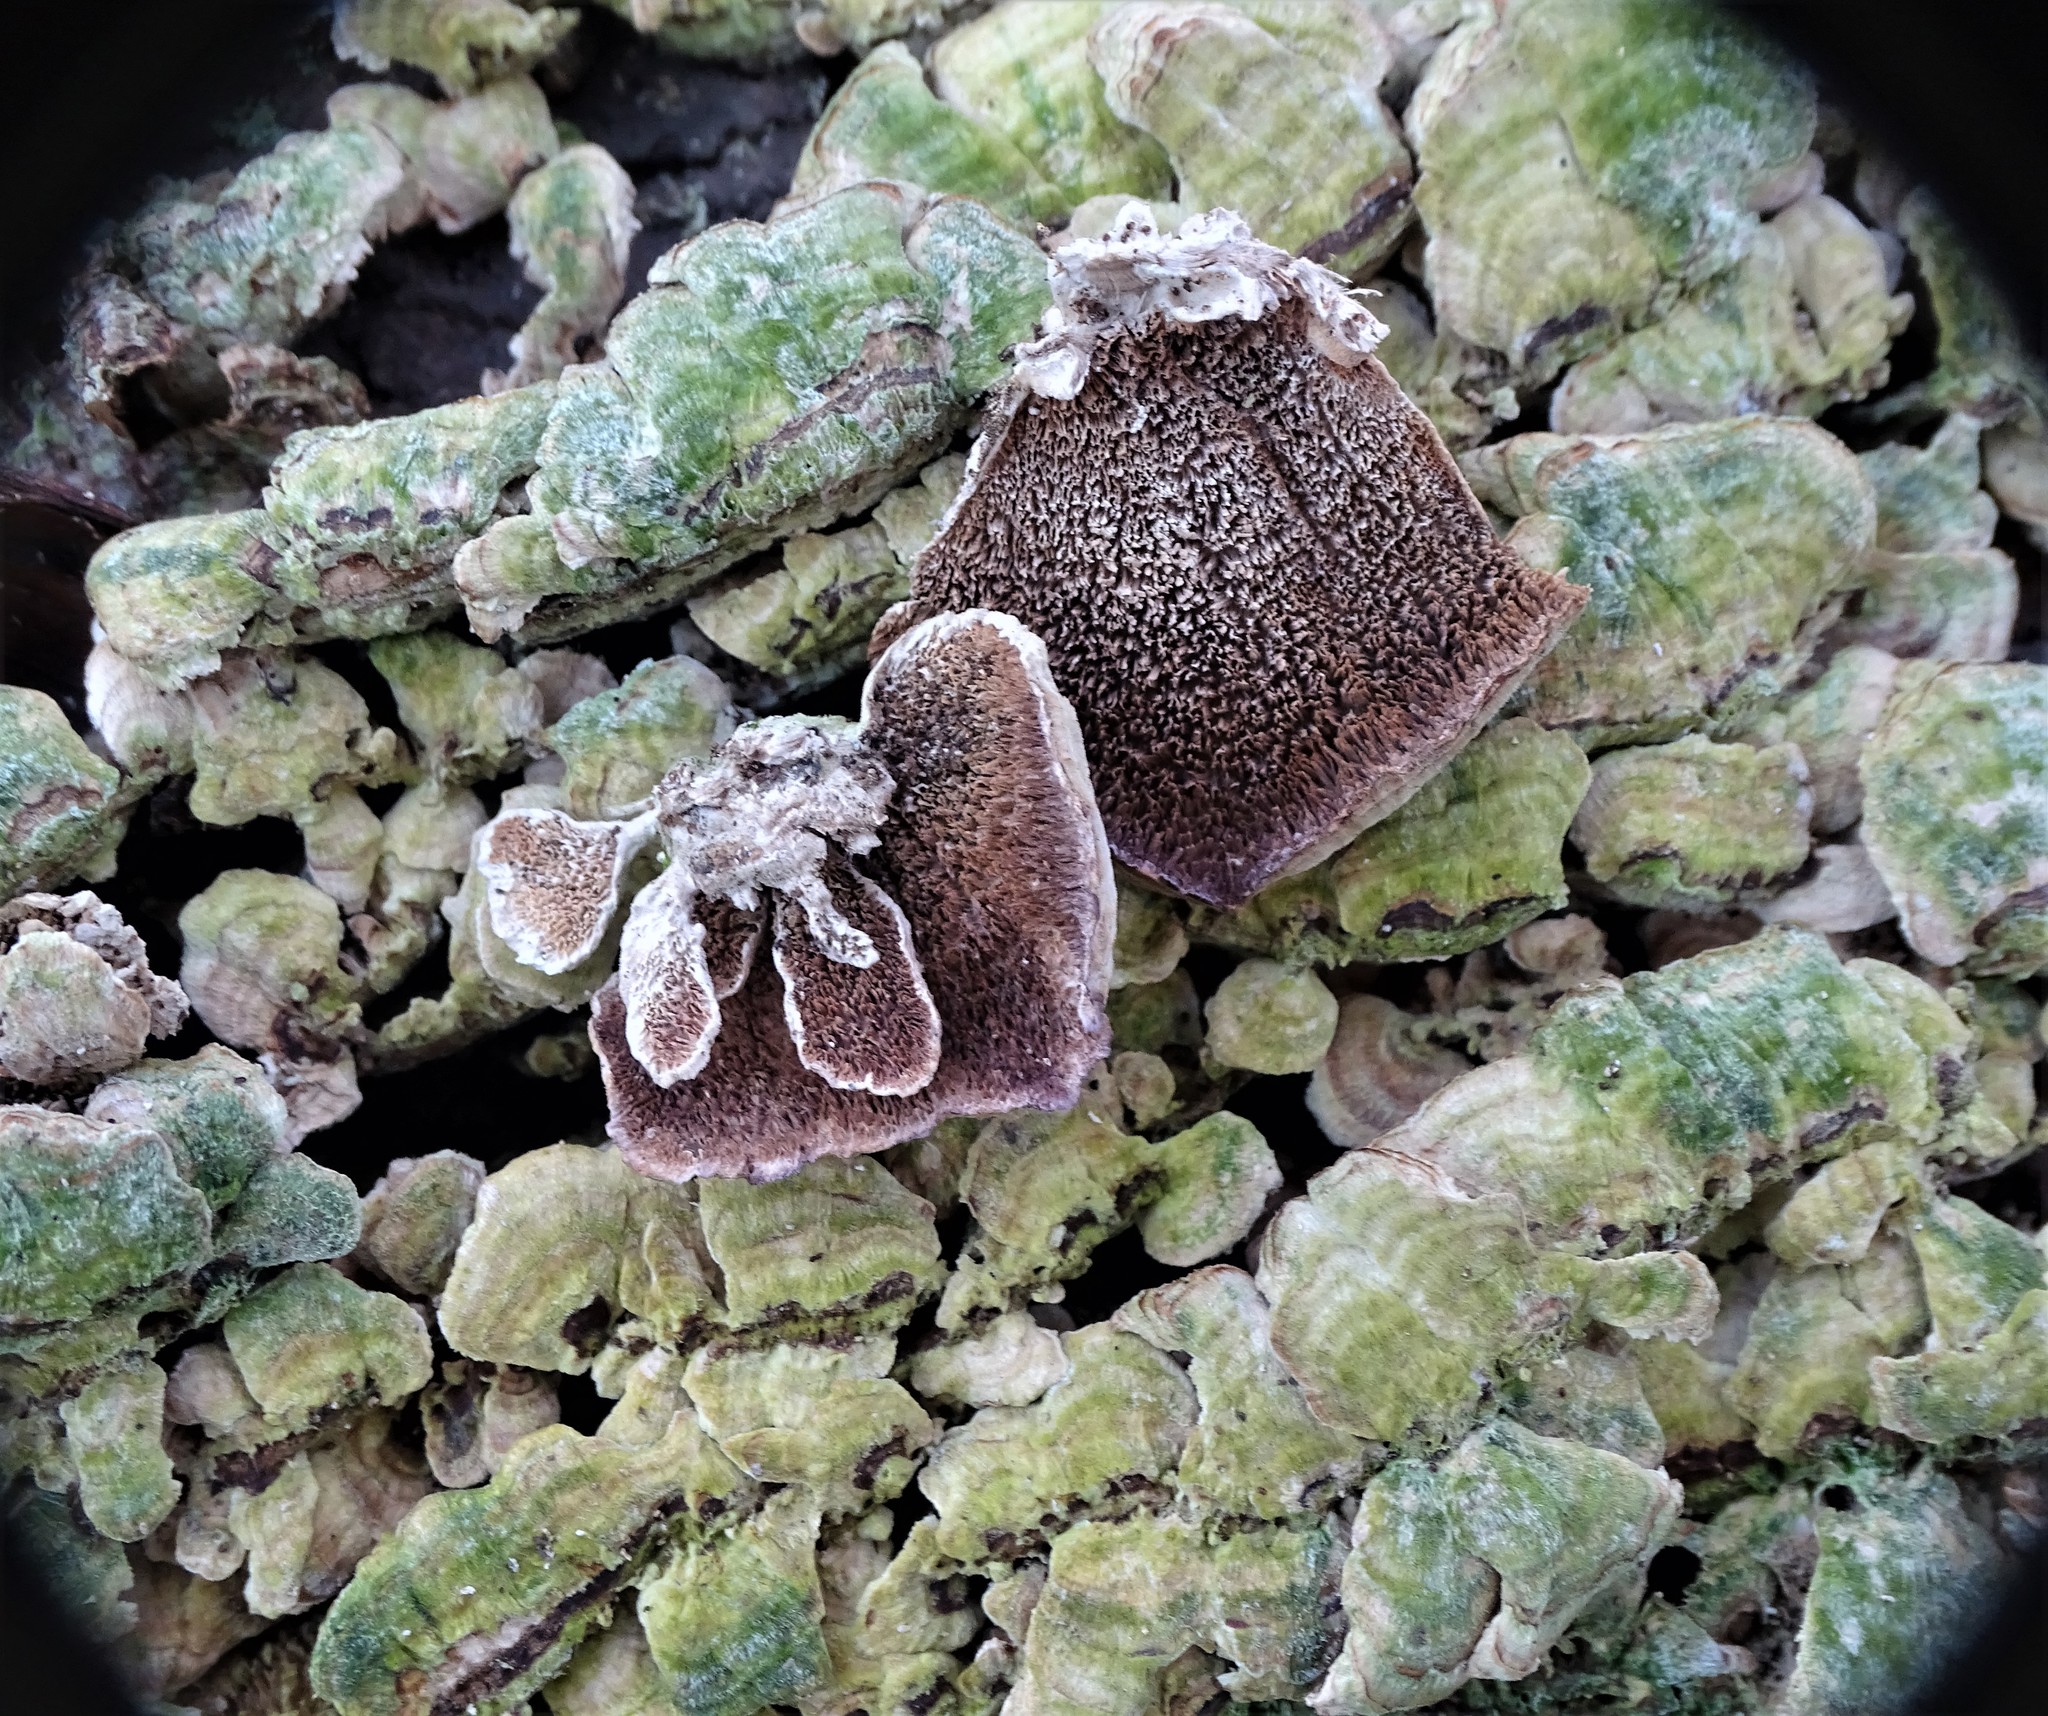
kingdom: Fungi
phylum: Basidiomycota
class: Agaricomycetes
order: Hymenochaetales
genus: Trichaptum
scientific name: Trichaptum biforme
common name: Violet-toothed polypore
